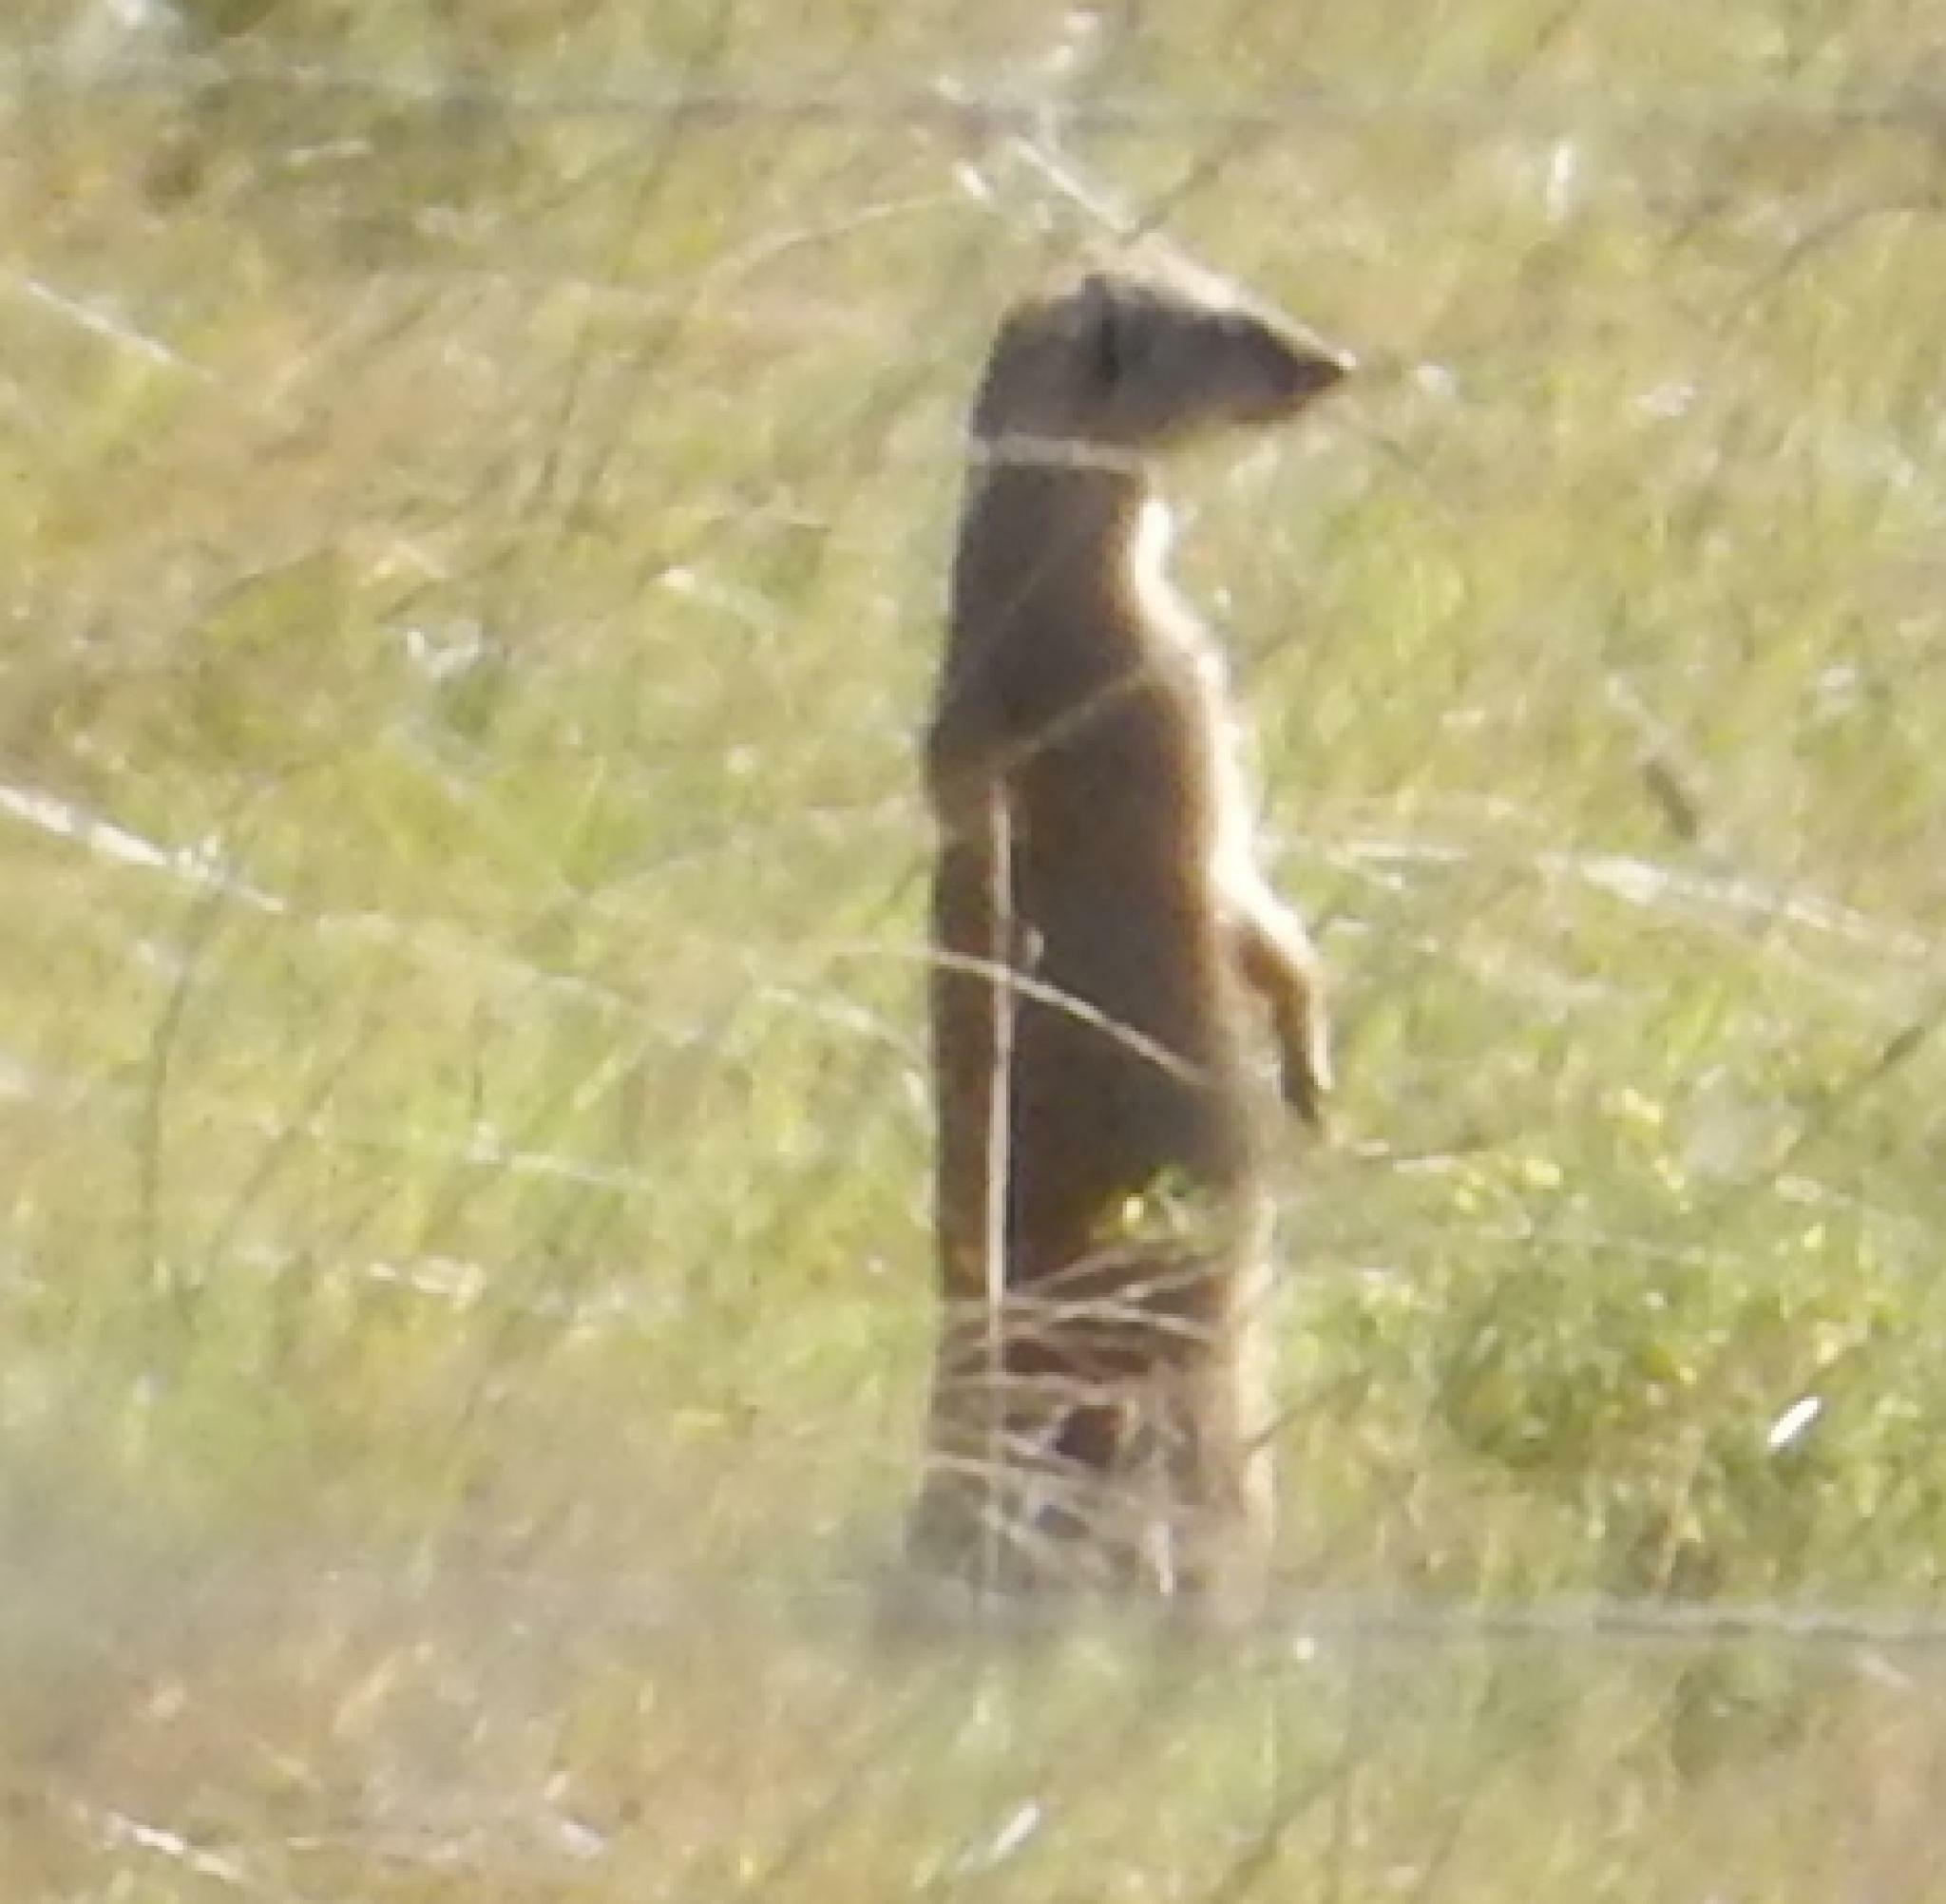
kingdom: Animalia
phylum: Chordata
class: Mammalia
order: Carnivora
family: Herpestidae
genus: Cynictis
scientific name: Cynictis penicillata
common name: Yellow mongoose
